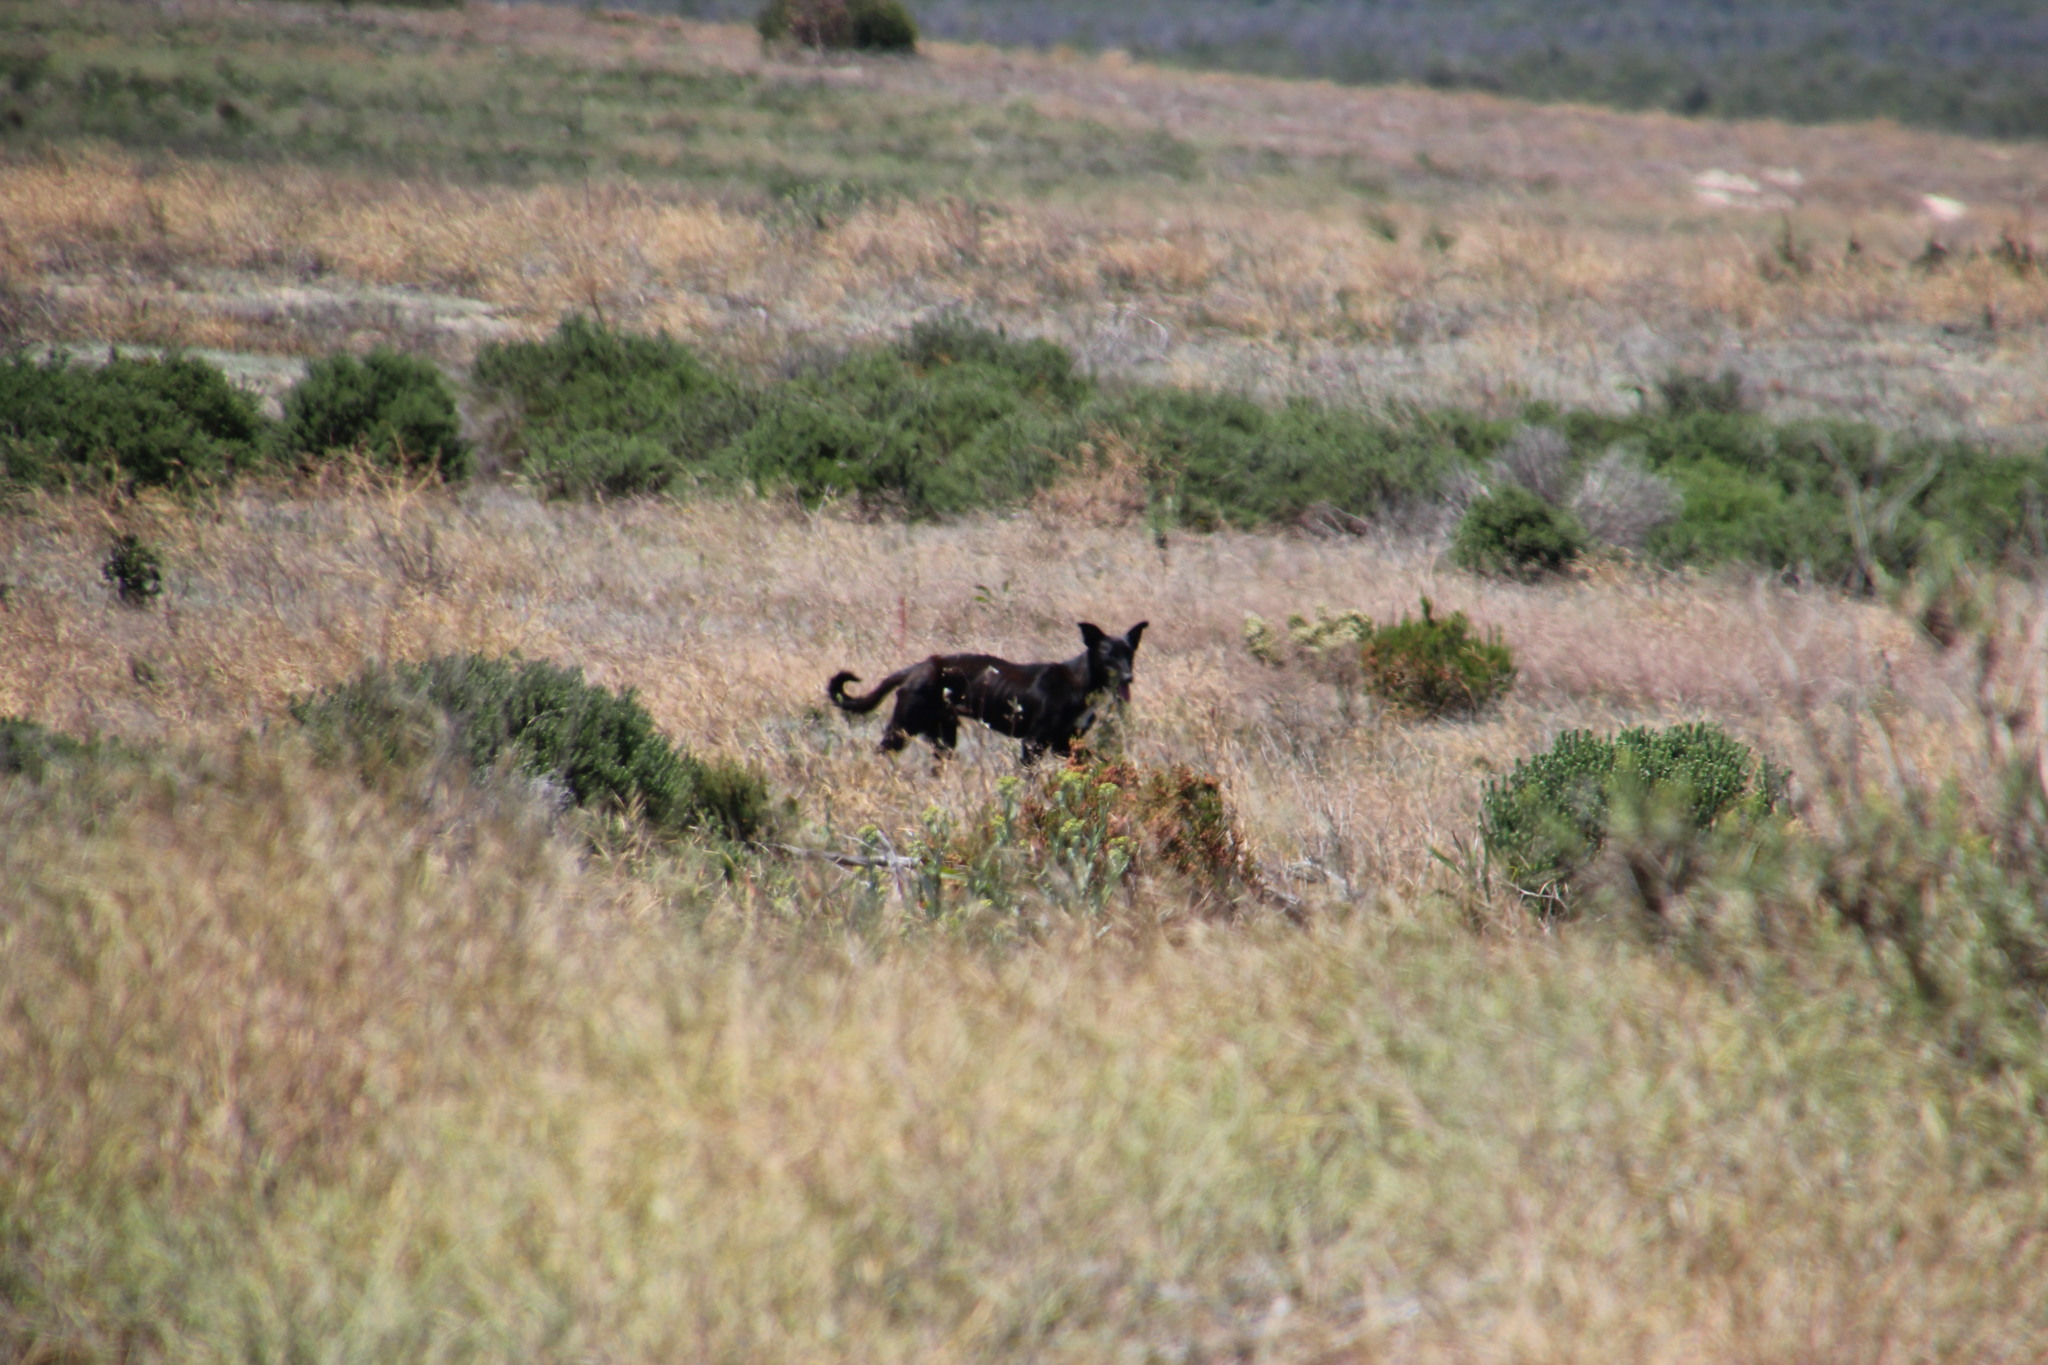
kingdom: Animalia
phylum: Chordata
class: Mammalia
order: Carnivora
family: Canidae
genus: Canis
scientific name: Canis lupus
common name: Gray wolf
